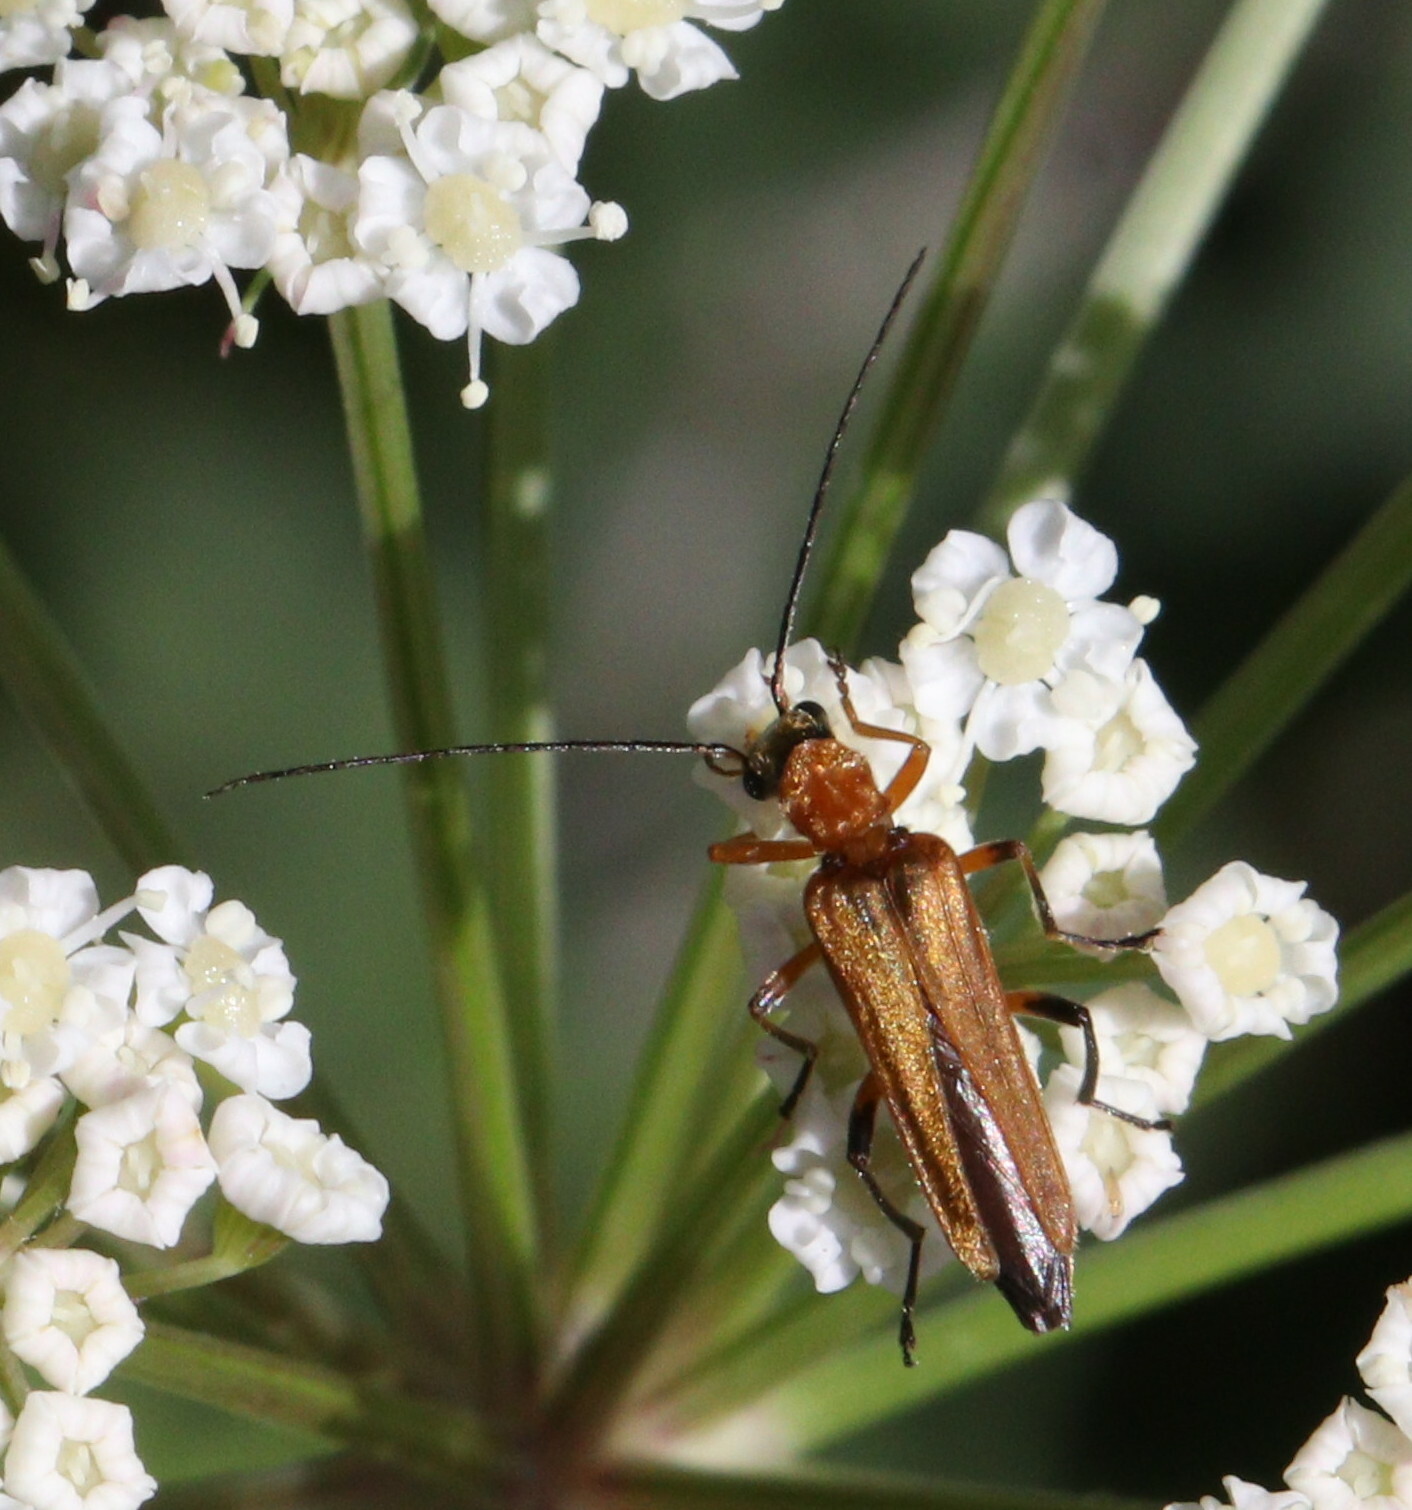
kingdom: Animalia
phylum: Arthropoda
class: Insecta
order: Coleoptera
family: Oedemeridae
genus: Oedemera
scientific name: Oedemera podagrariae
